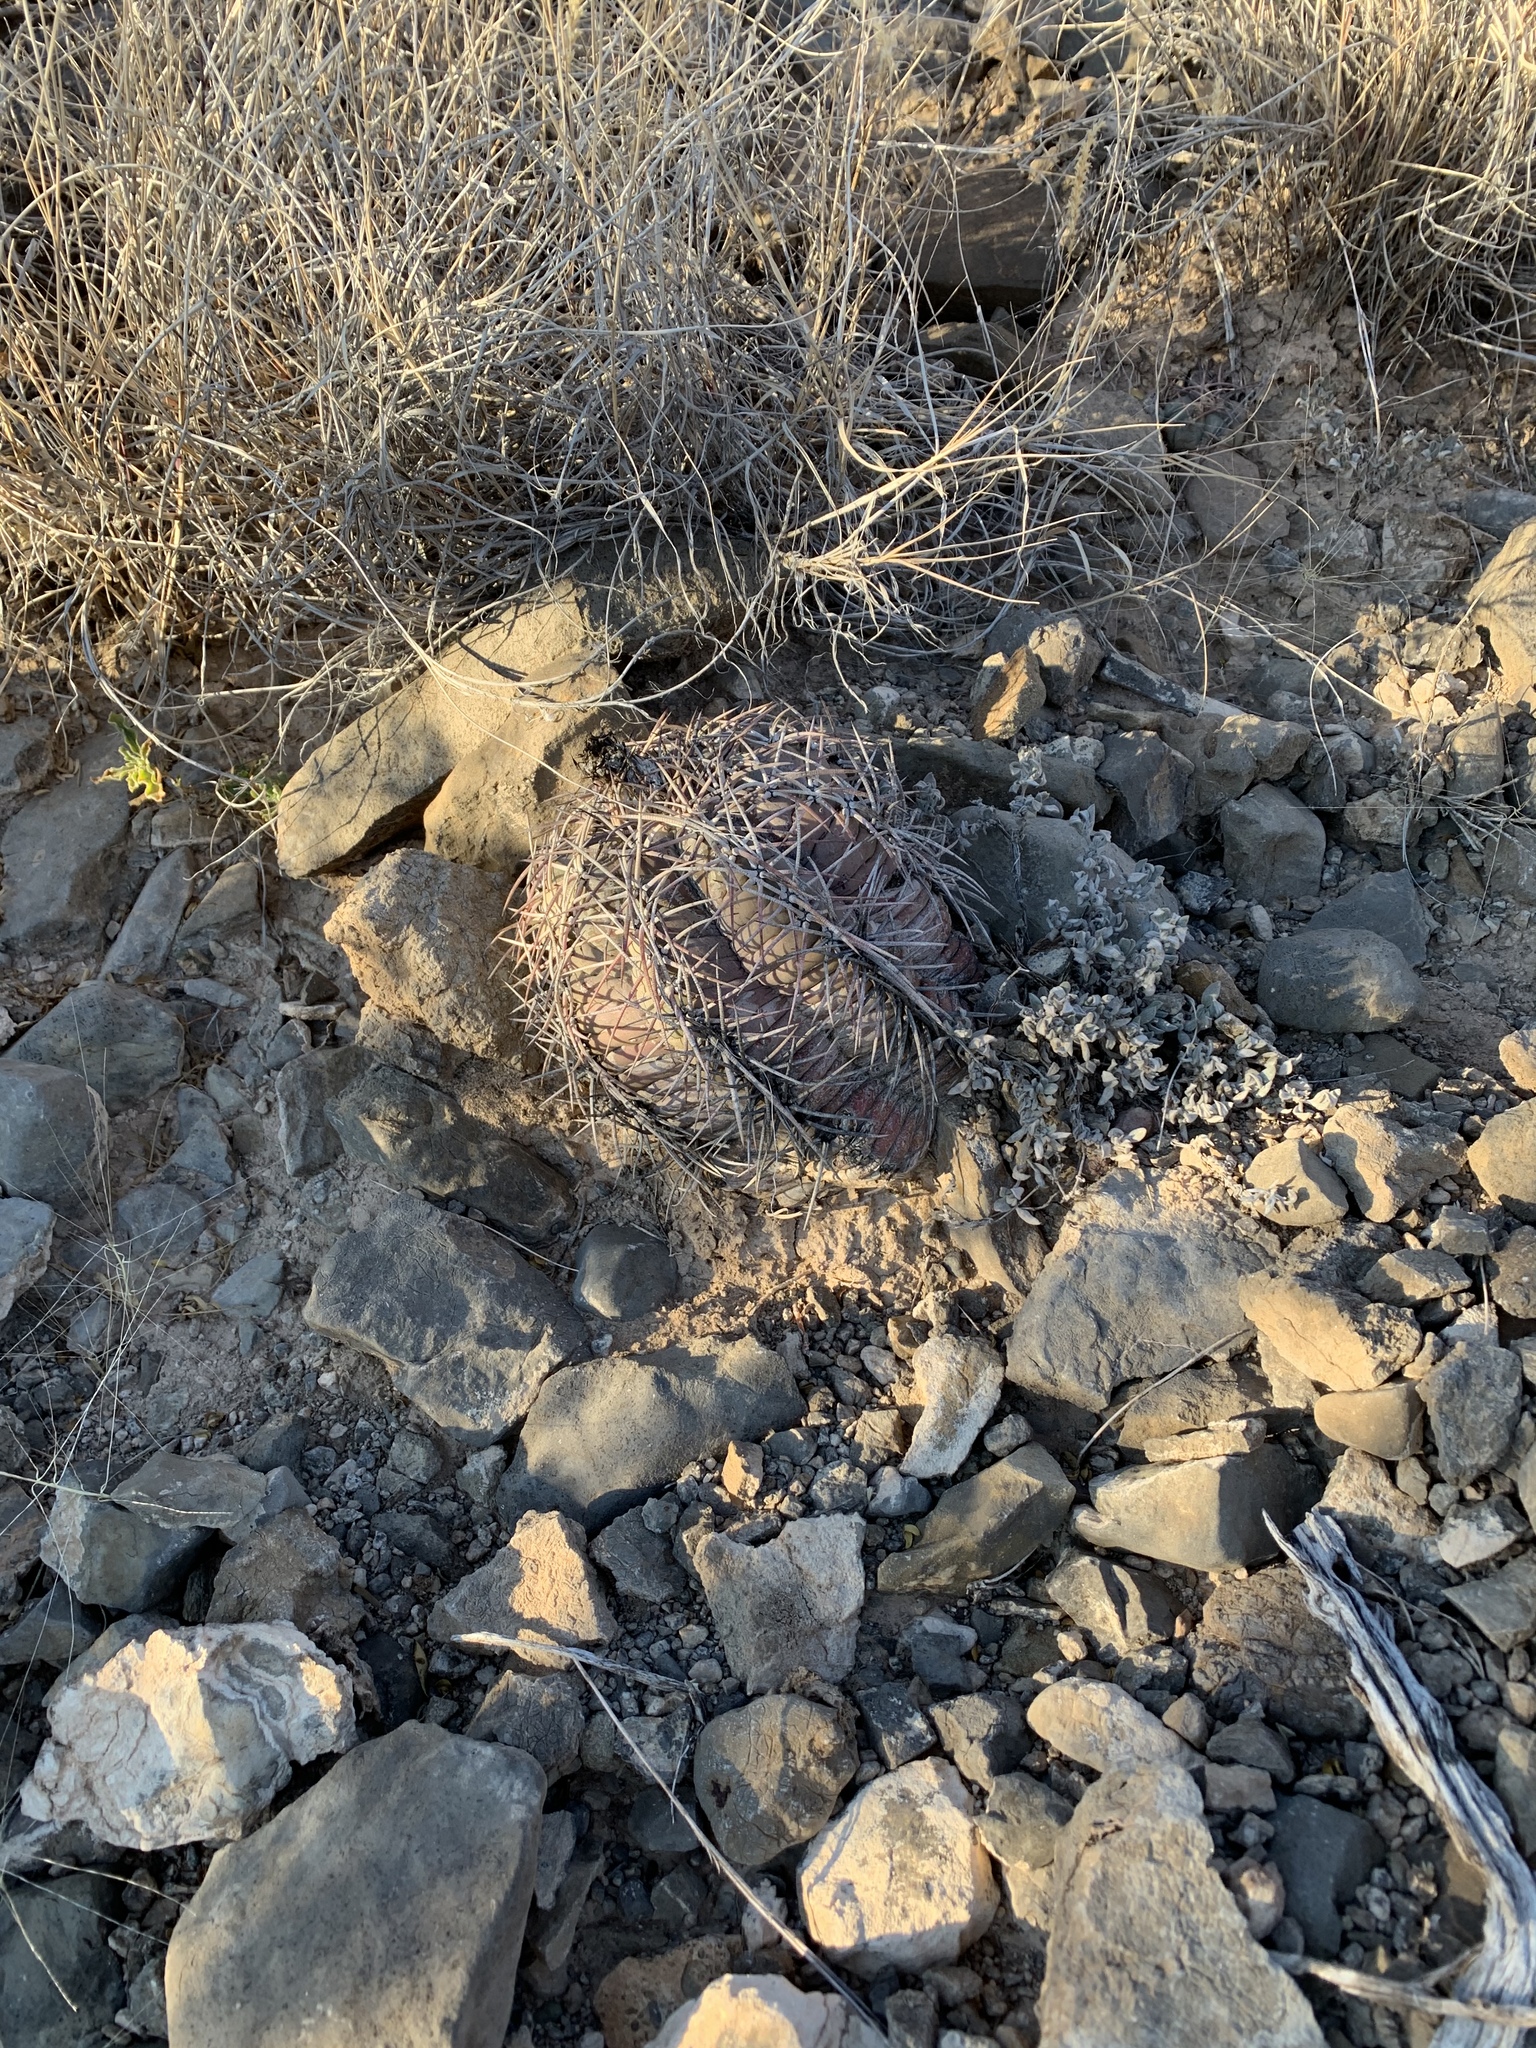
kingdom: Plantae
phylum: Tracheophyta
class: Magnoliopsida
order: Caryophyllales
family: Cactaceae
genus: Echinocactus
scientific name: Echinocactus horizonthalonius
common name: Devilshead
